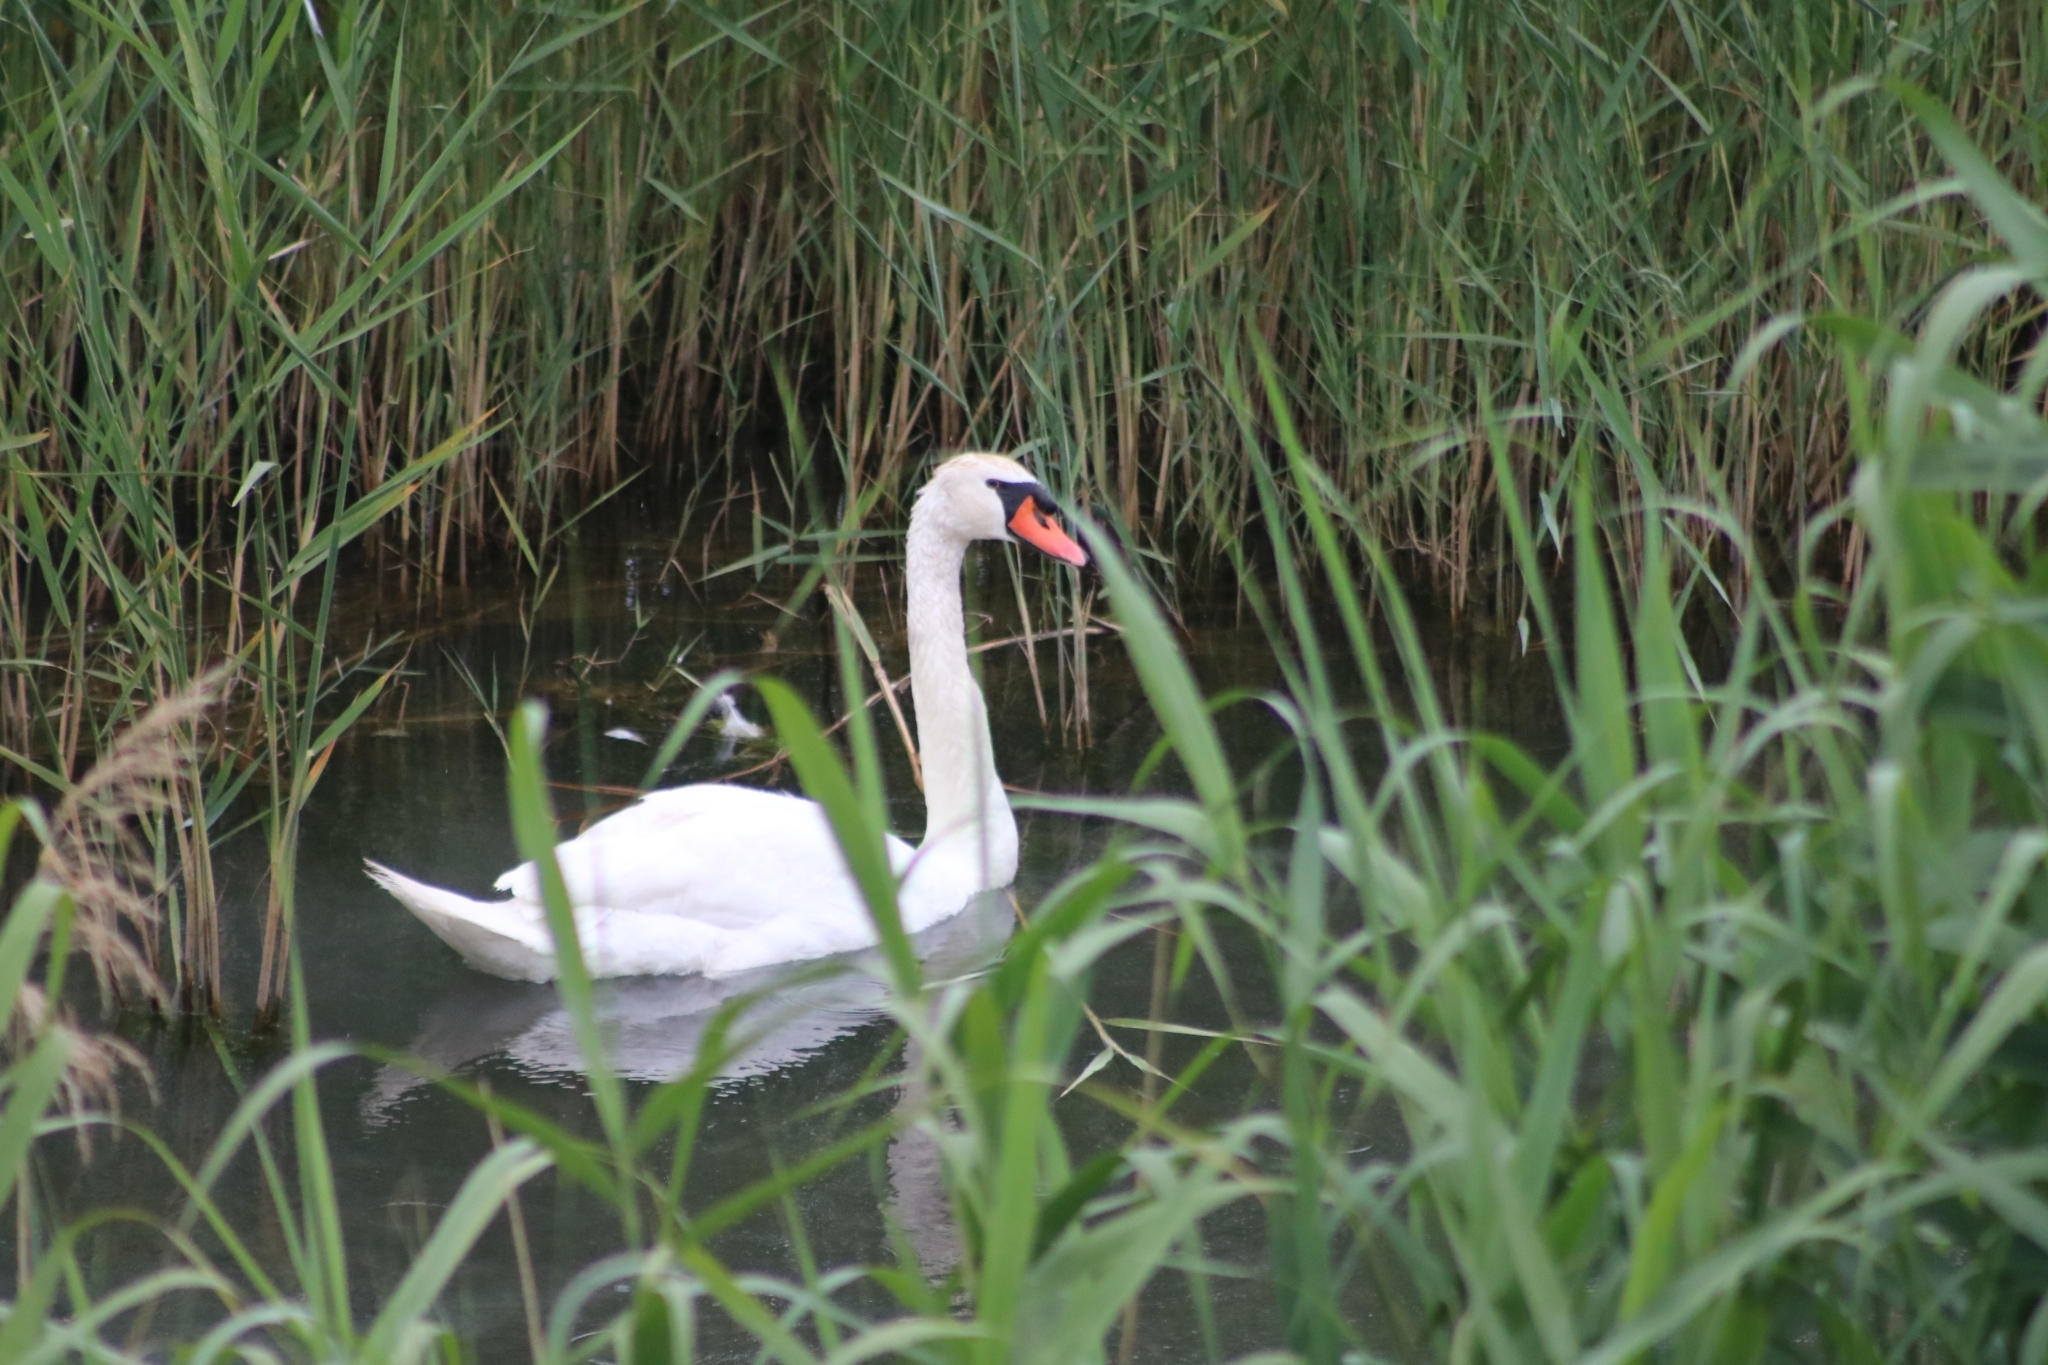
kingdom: Animalia
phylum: Chordata
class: Aves
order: Anseriformes
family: Anatidae
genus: Cygnus
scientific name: Cygnus olor
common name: Mute swan
